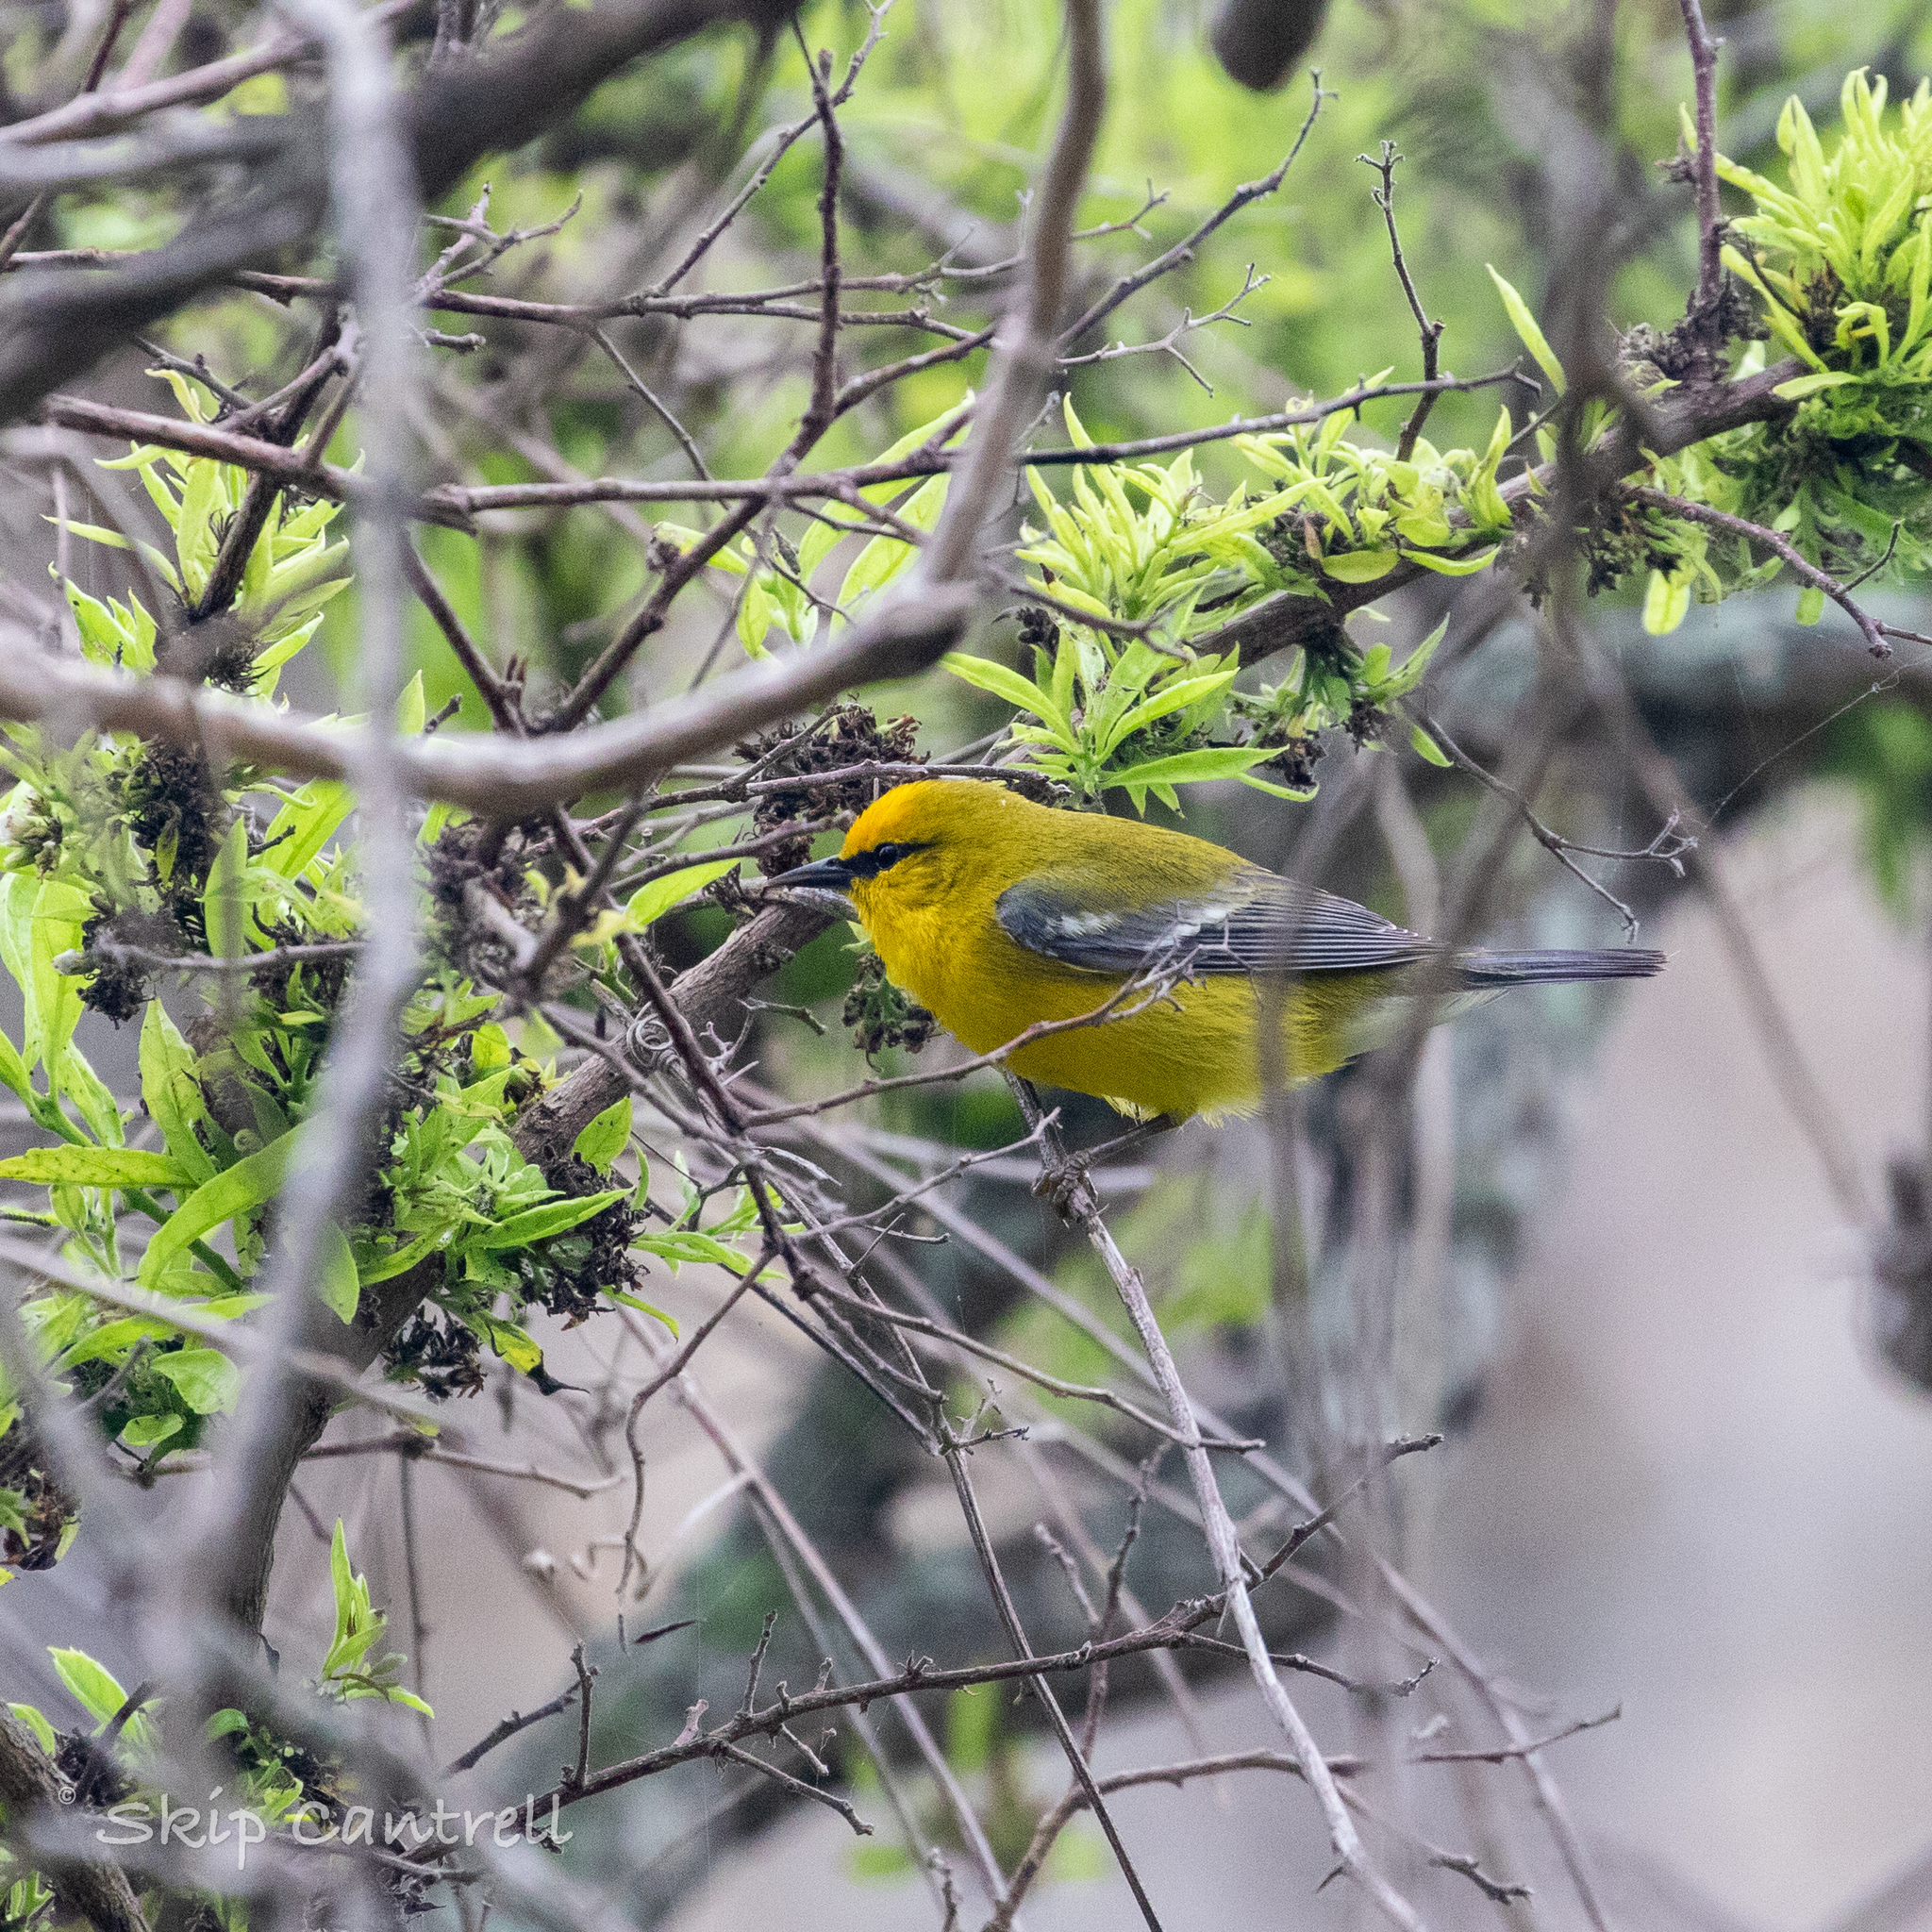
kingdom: Animalia
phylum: Chordata
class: Aves
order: Passeriformes
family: Parulidae
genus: Vermivora
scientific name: Vermivora cyanoptera
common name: Blue-winged warbler
